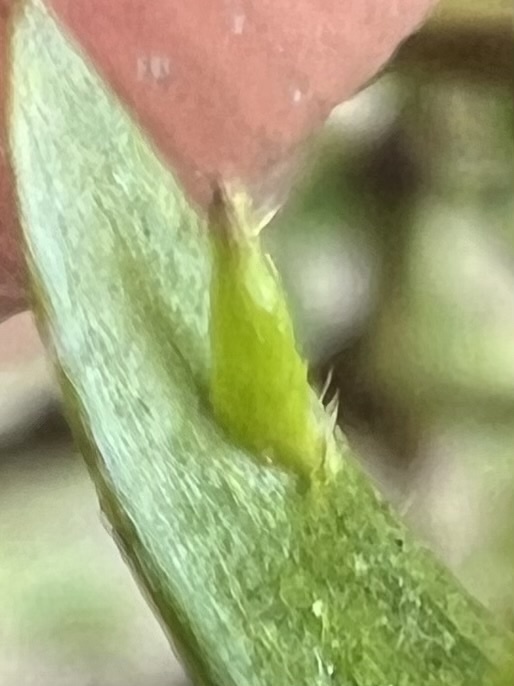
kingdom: Animalia
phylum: Arthropoda
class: Insecta
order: Diptera
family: Cecidomyiidae
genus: Asphondylia
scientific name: Asphondylia silicula
